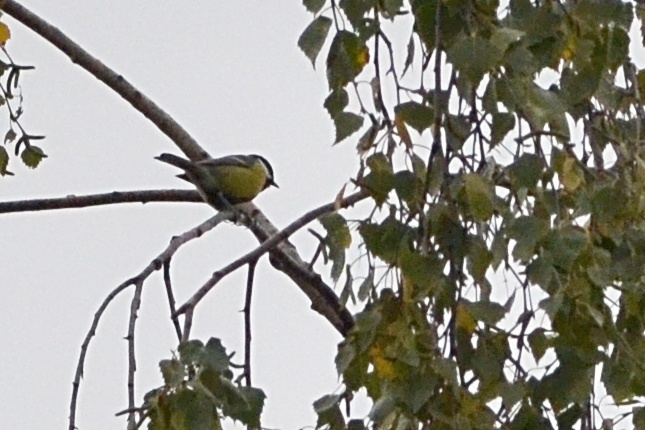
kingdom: Animalia
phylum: Chordata
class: Aves
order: Passeriformes
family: Paridae
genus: Parus
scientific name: Parus major
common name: Great tit
